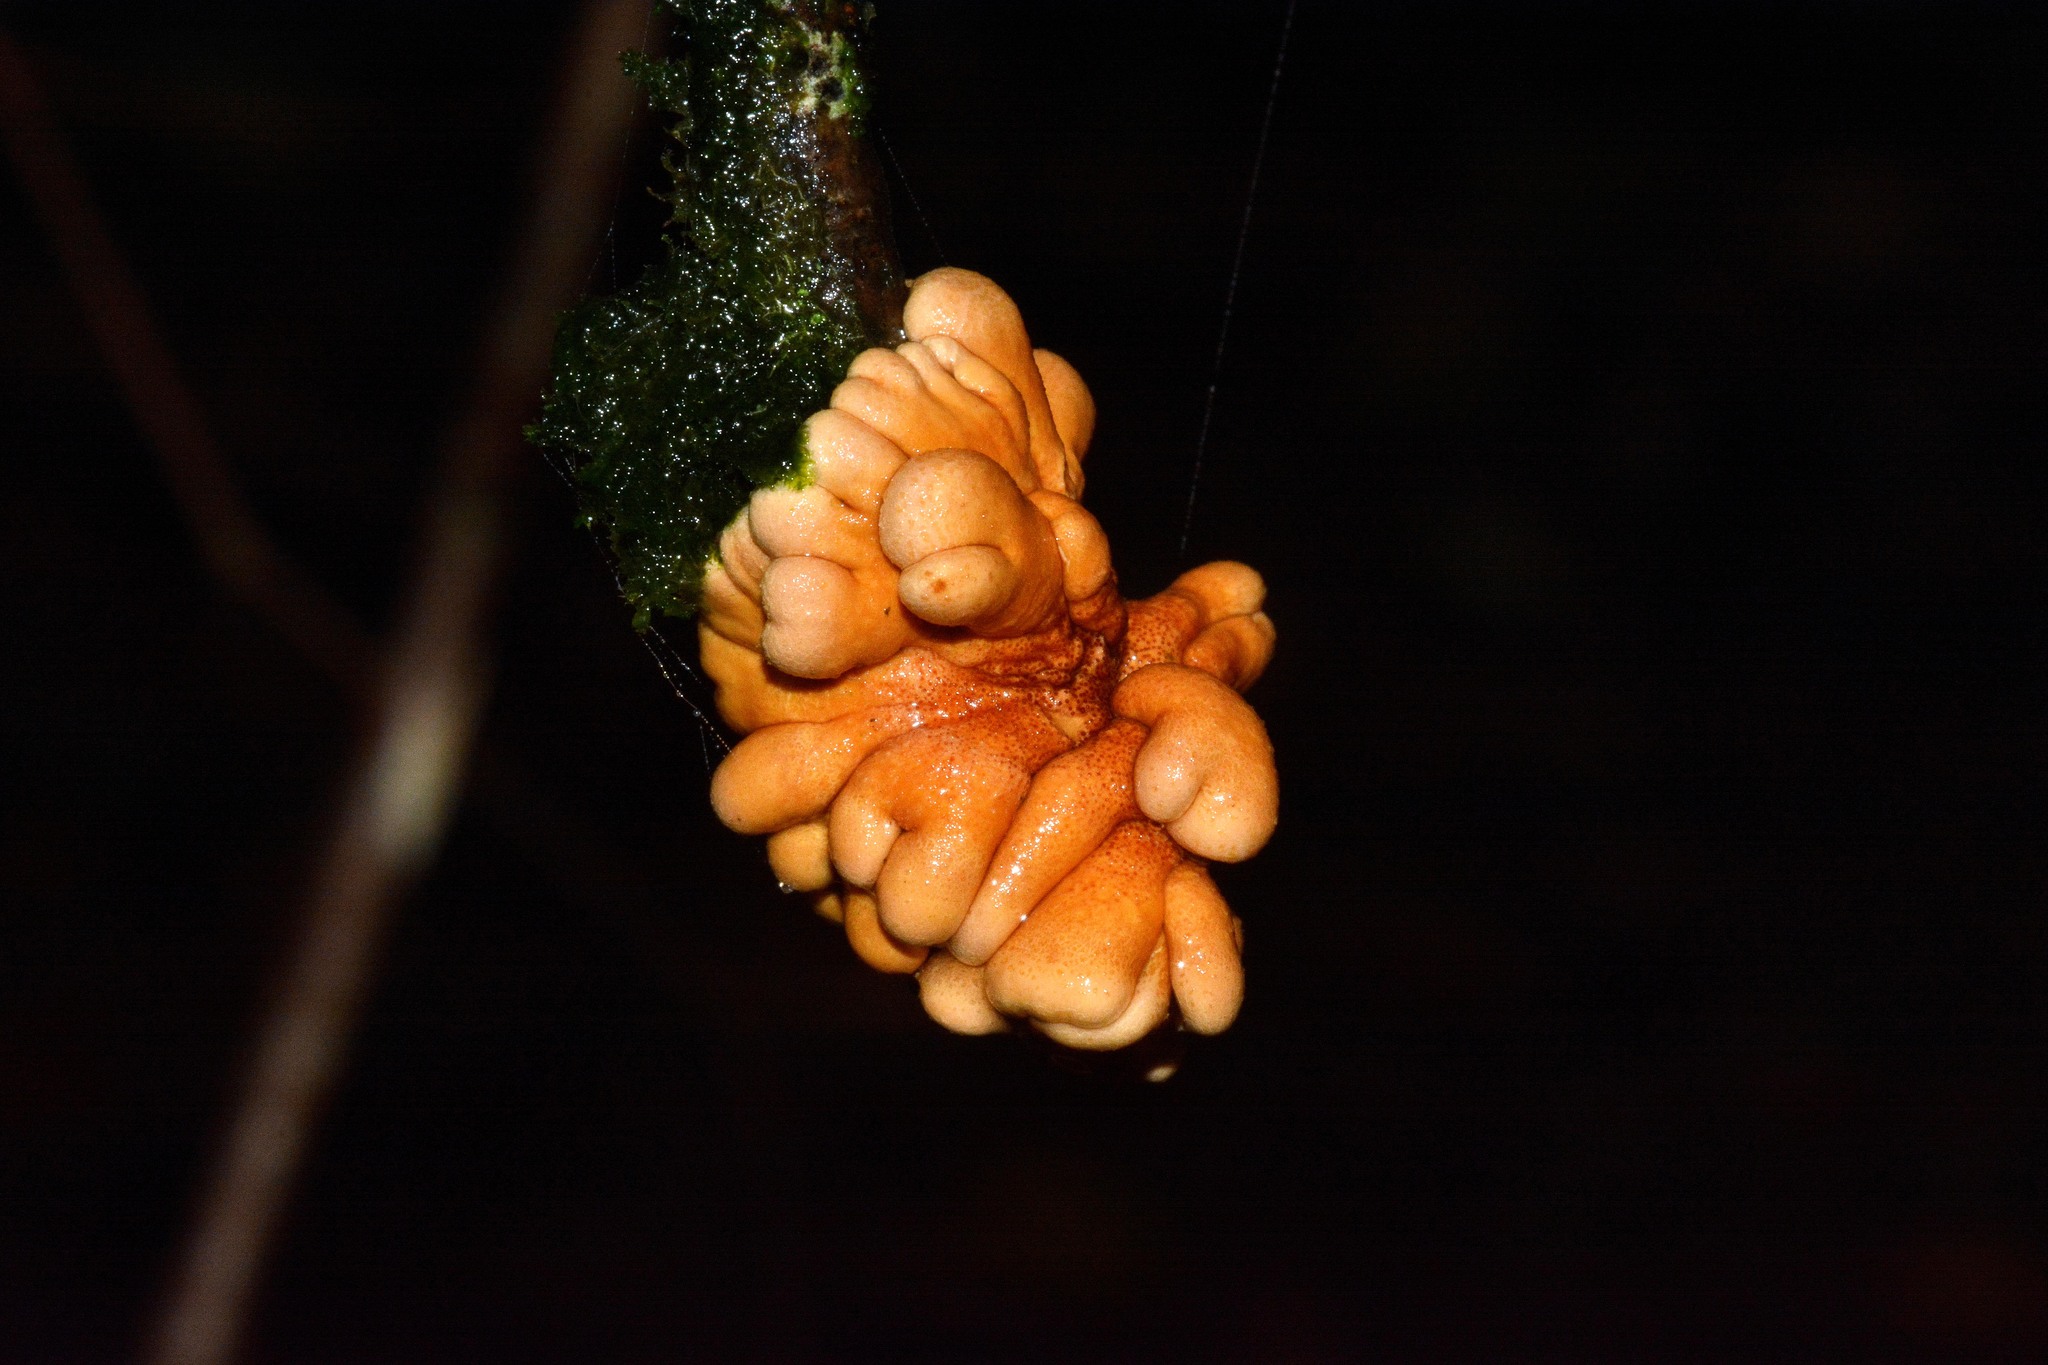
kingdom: Fungi
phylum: Ascomycota
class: Sordariomycetes
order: Hypocreales
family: Hypocreaceae
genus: Hypocreopsis
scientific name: Hypocreopsis rhododendri
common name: Hazel gloves
